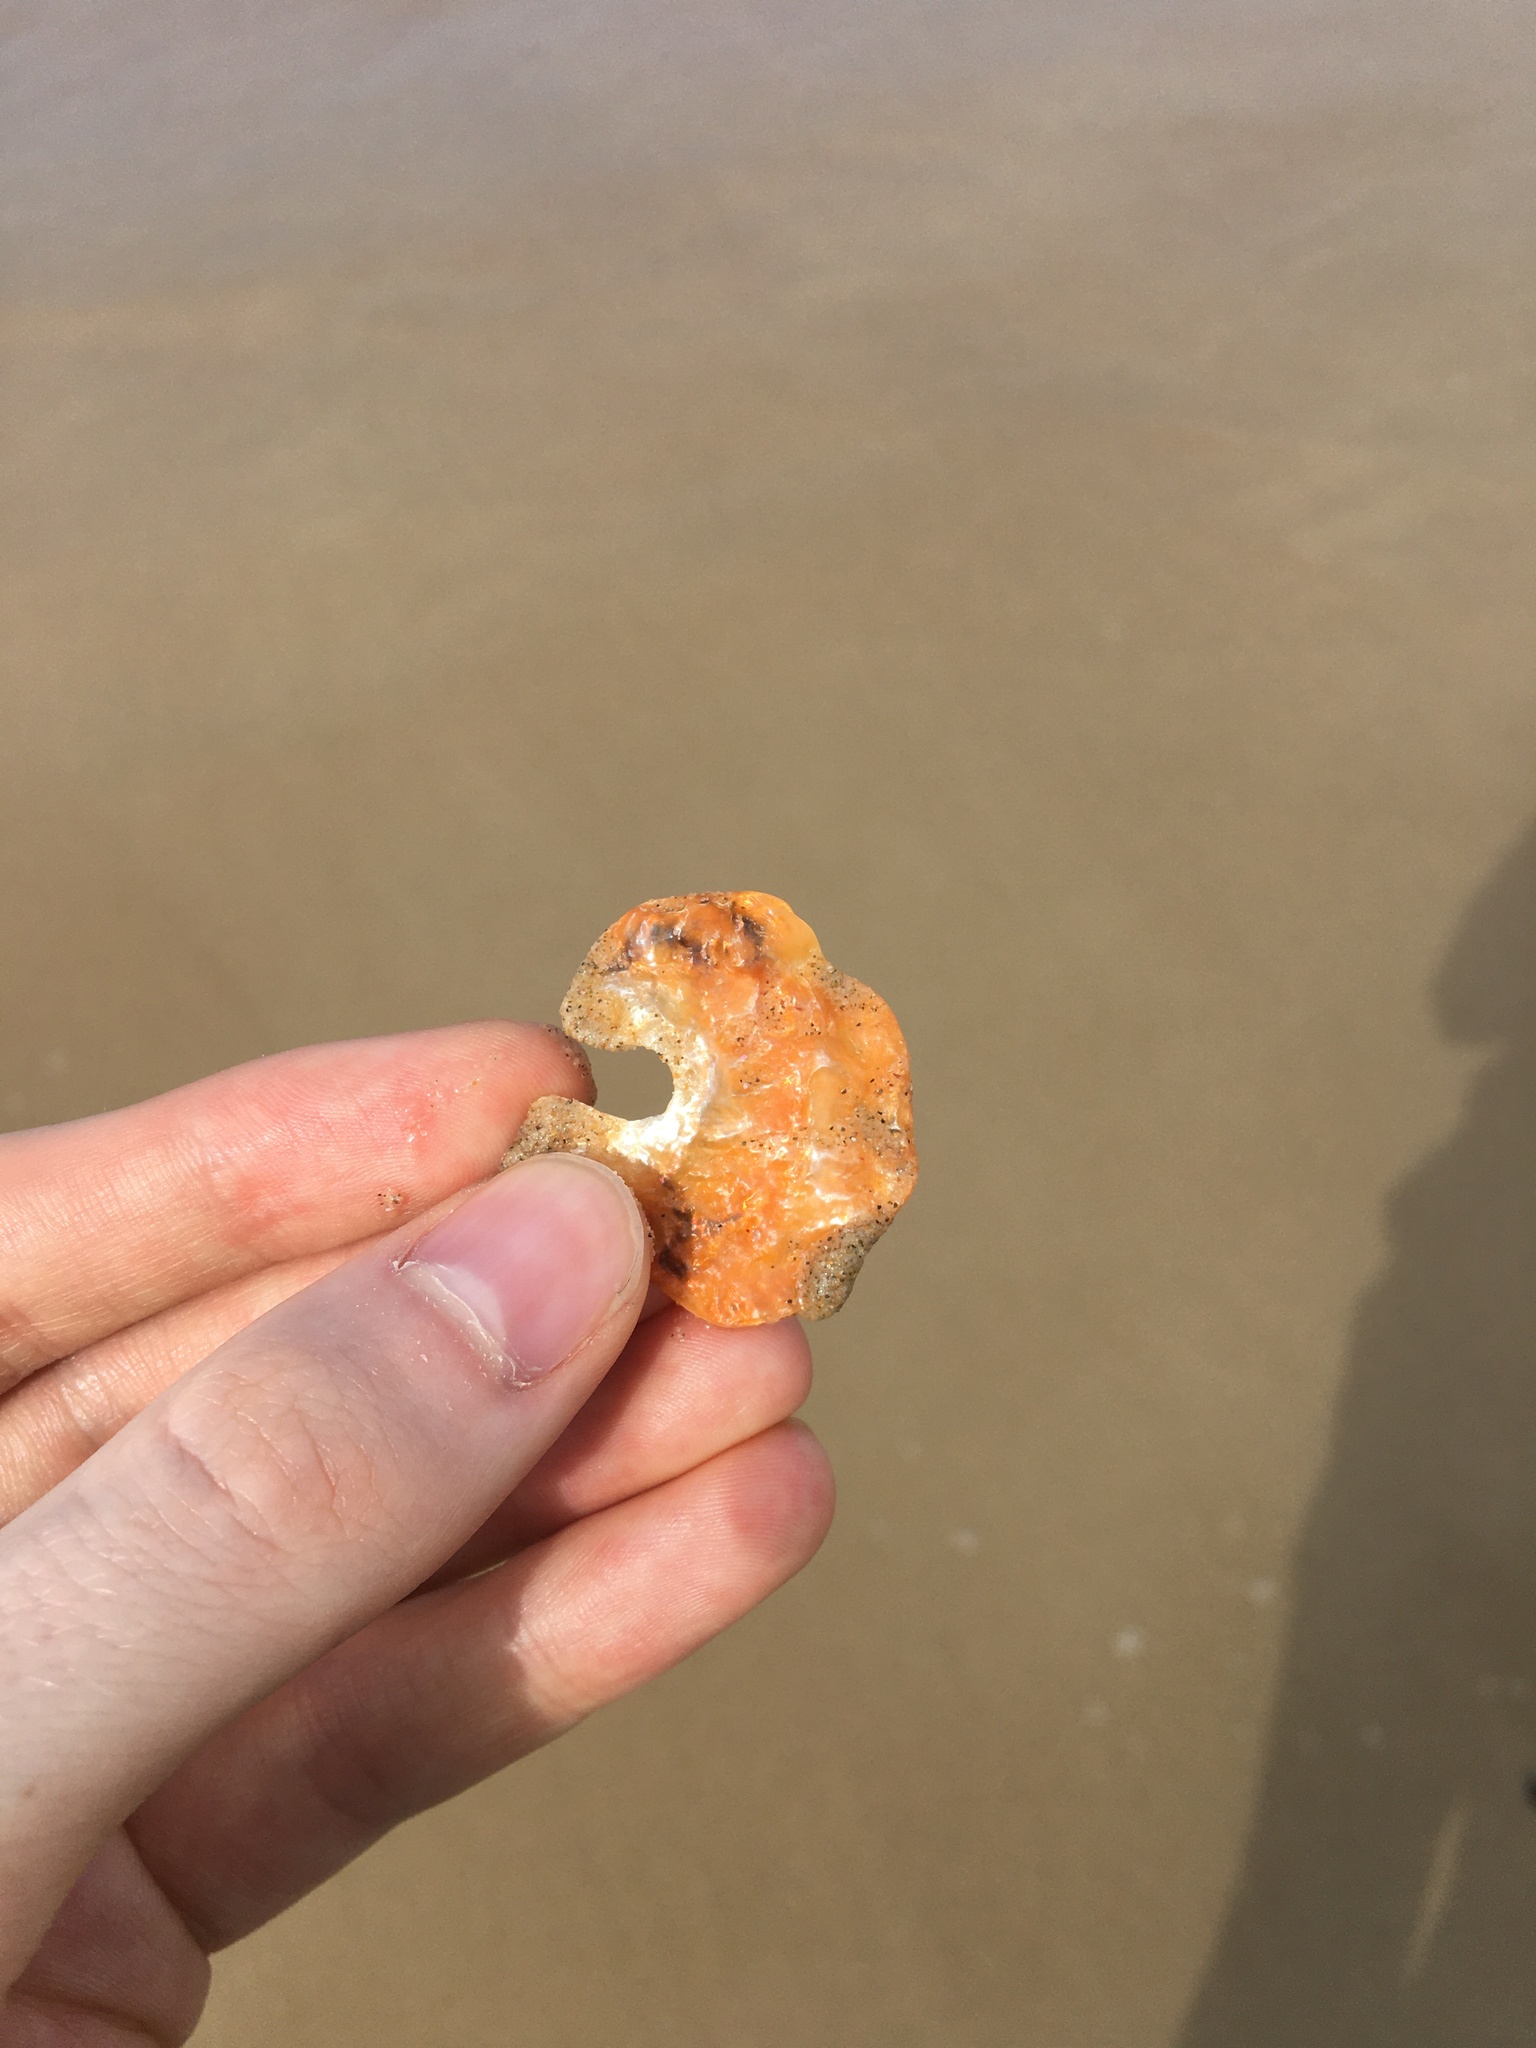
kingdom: Animalia
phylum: Mollusca
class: Bivalvia
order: Pectinida
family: Anomiidae
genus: Anomia
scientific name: Anomia trigonopsis
